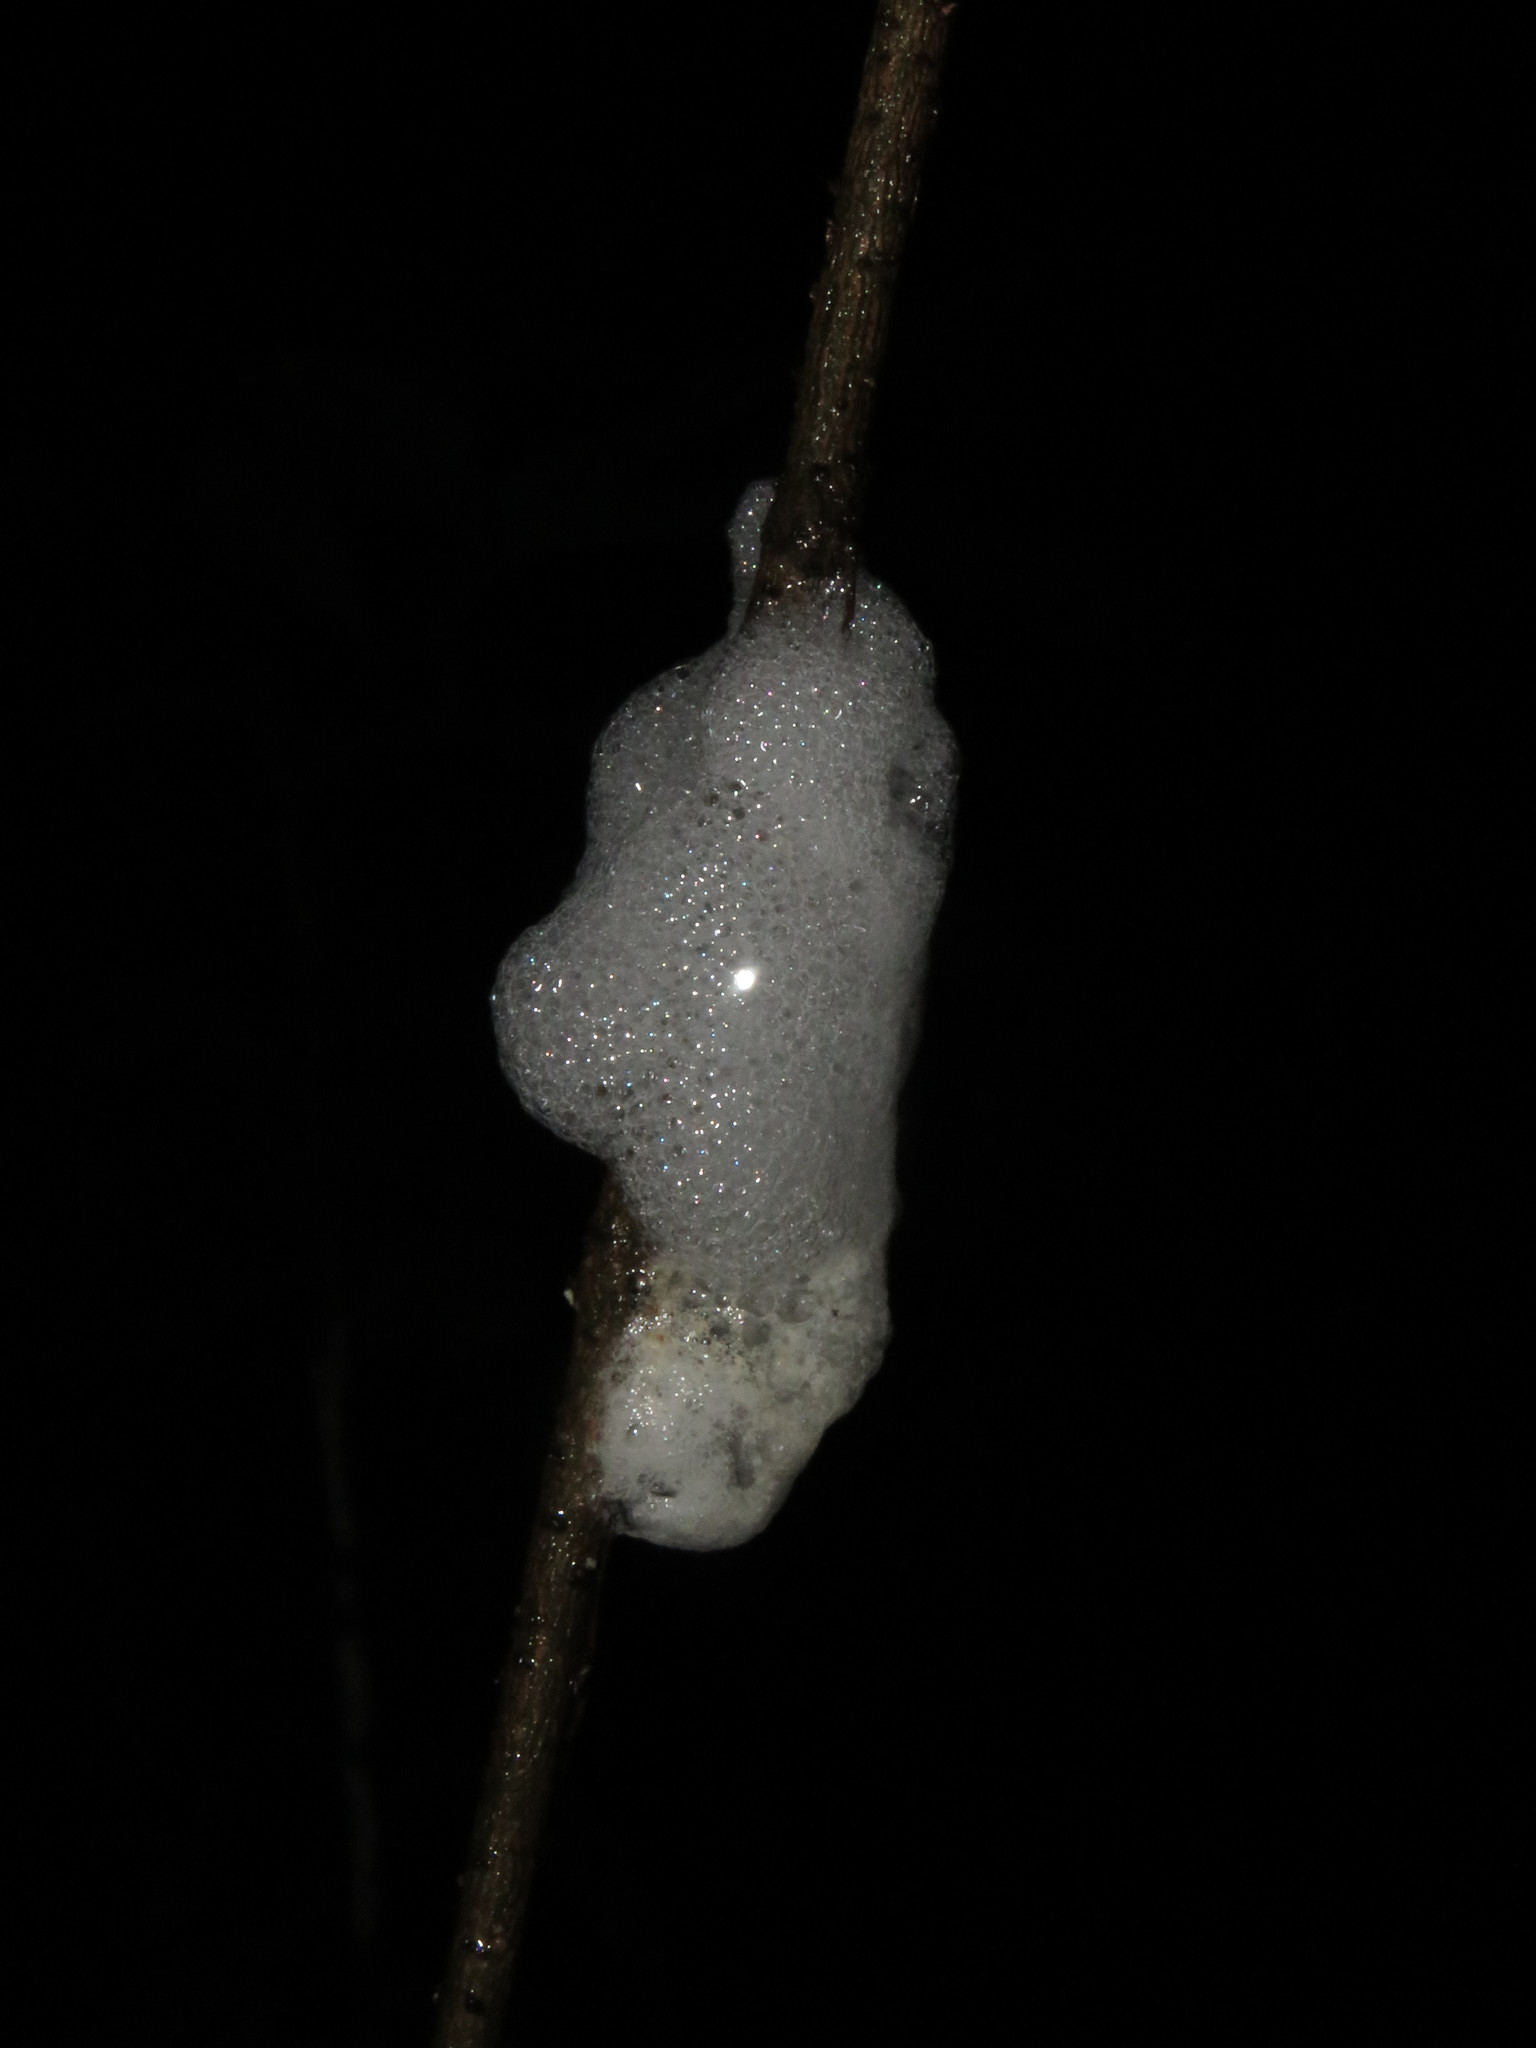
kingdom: Animalia
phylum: Chordata
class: Amphibia
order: Anura
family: Hylidae
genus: Scinax
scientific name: Scinax ruber
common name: Red snouted treefrog
